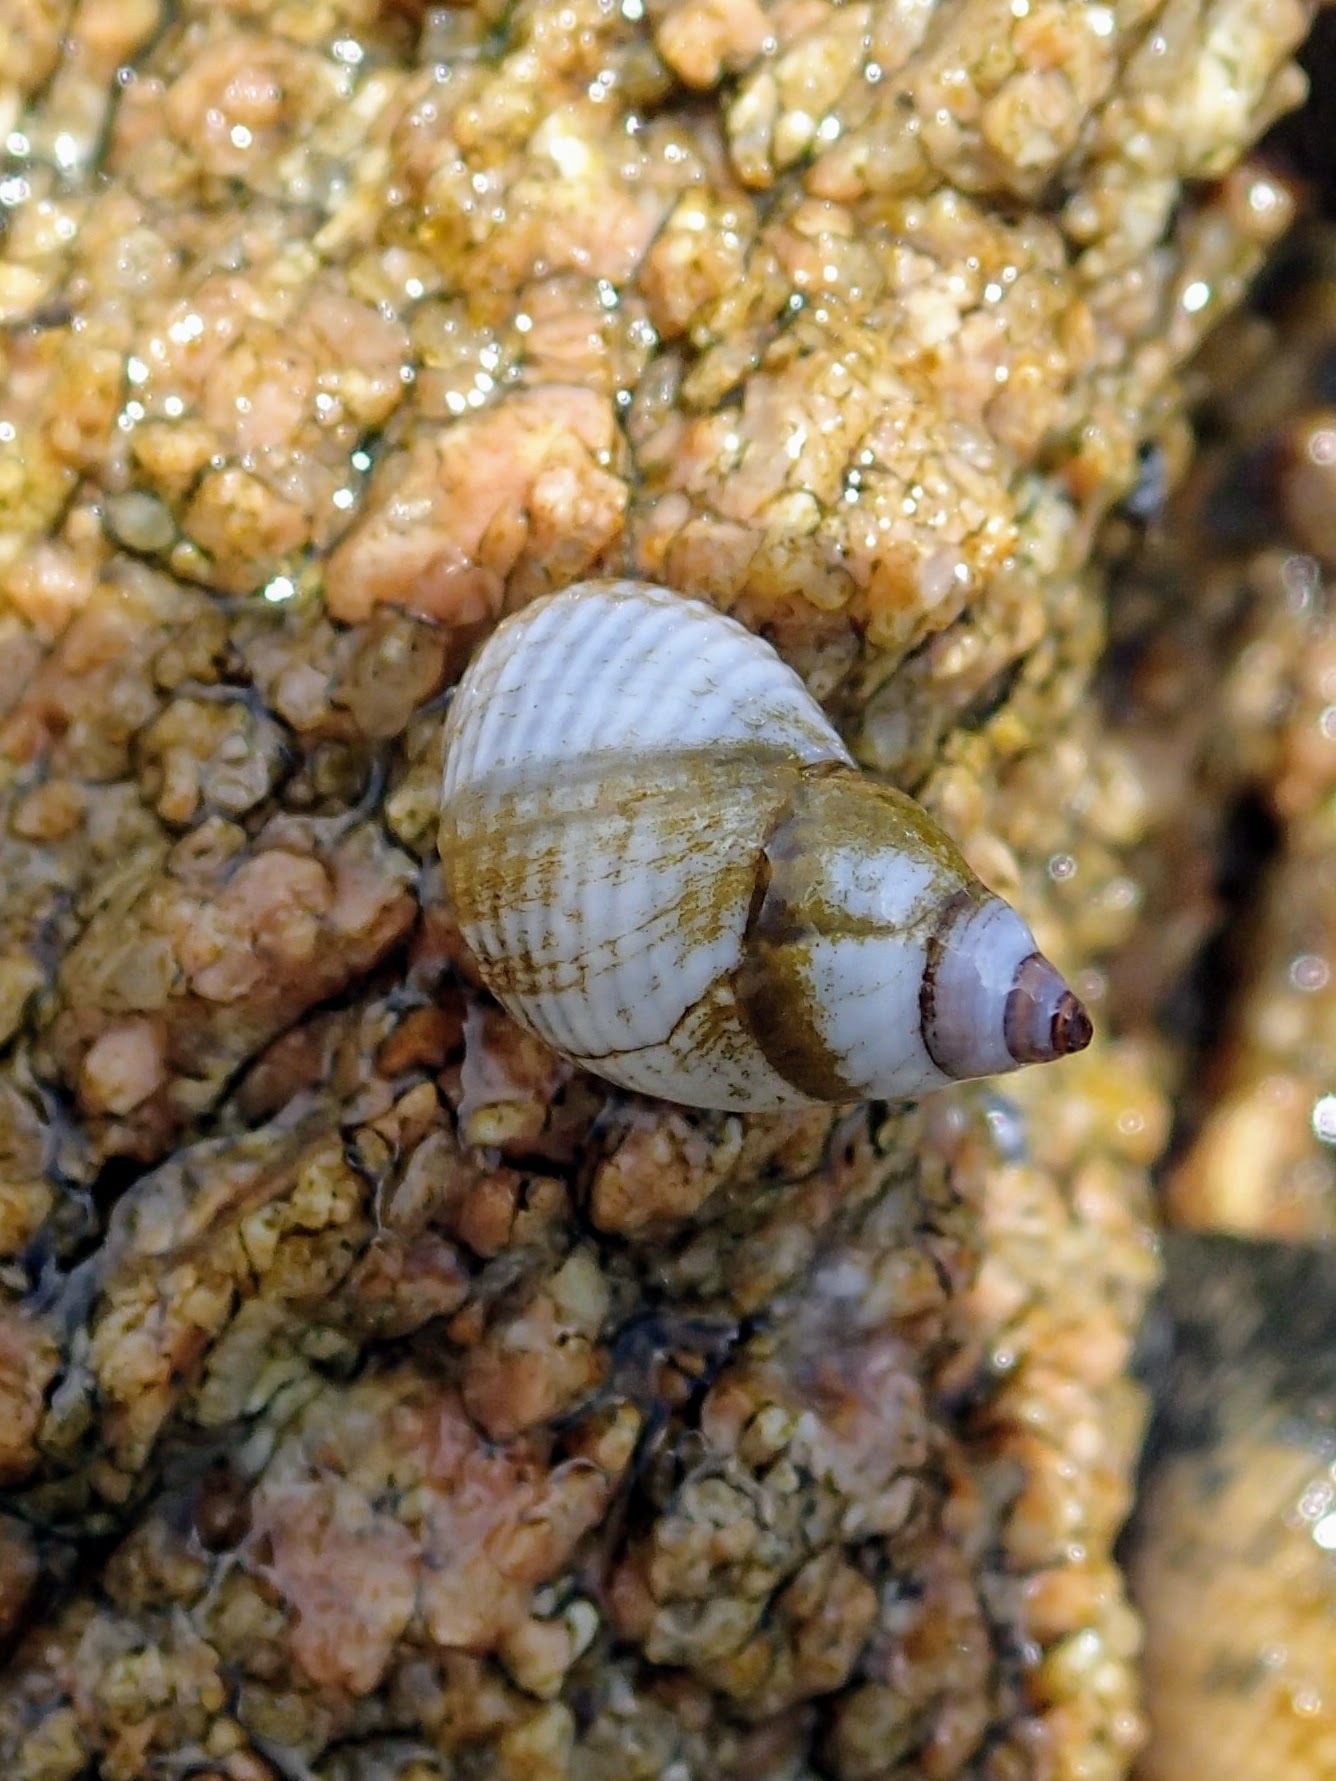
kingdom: Animalia
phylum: Mollusca
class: Gastropoda
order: Littorinimorpha
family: Littorinidae
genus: Echinolittorina
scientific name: Echinolittorina modesta
